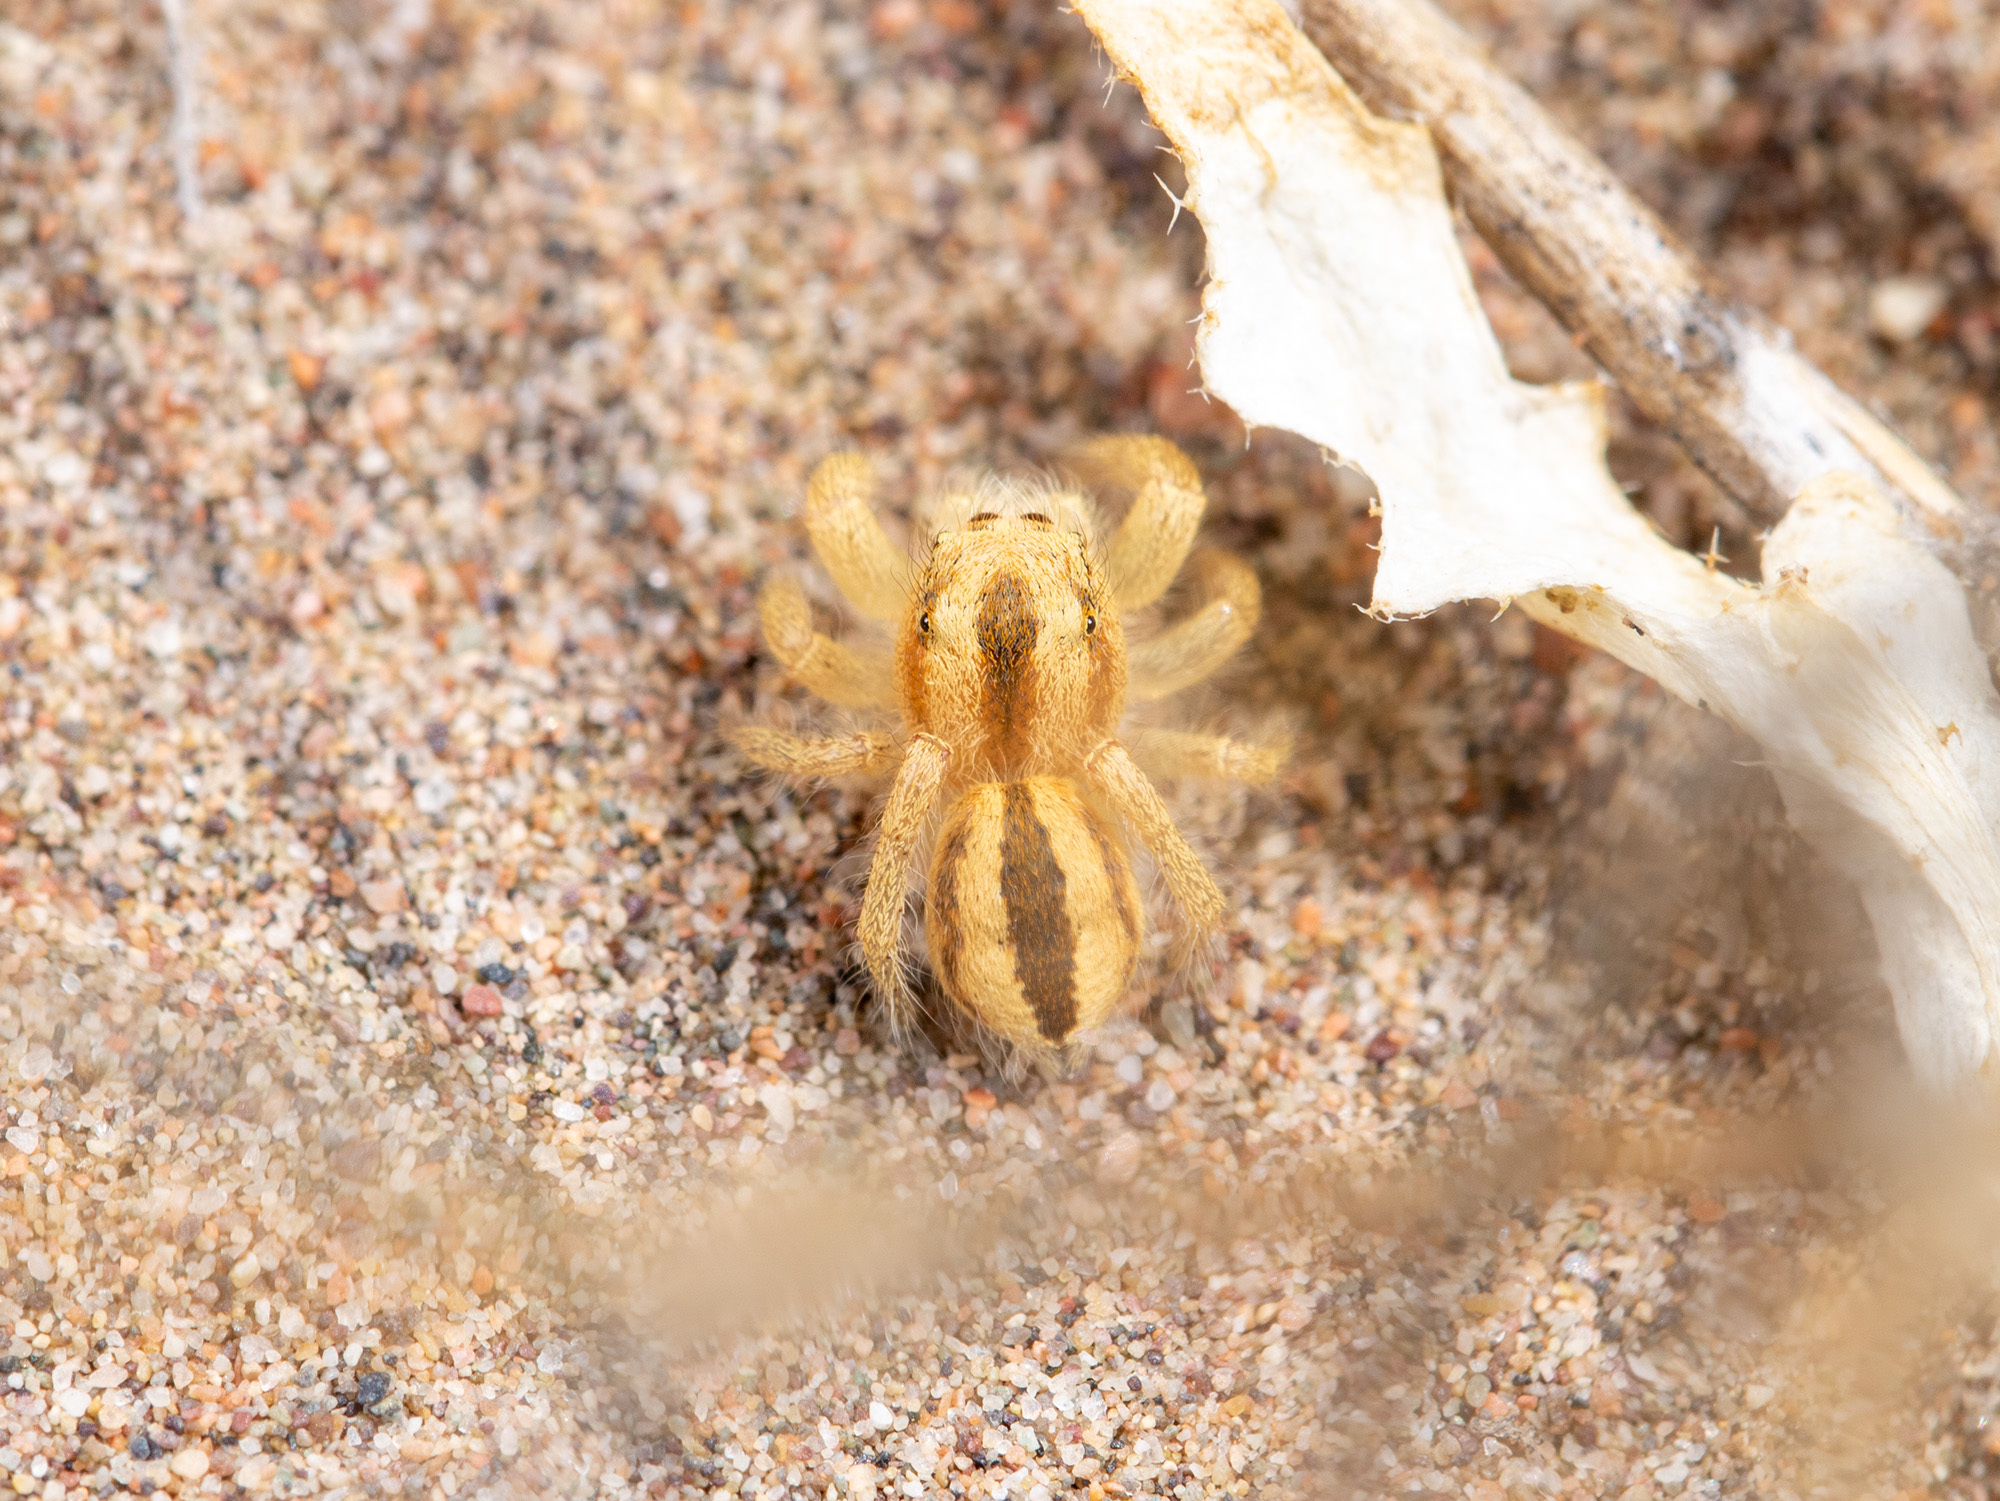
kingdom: Animalia
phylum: Arthropoda
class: Arachnida
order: Araneae
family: Salticidae
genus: Pseudomogrus
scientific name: Pseudomogrus zhilgaensis
